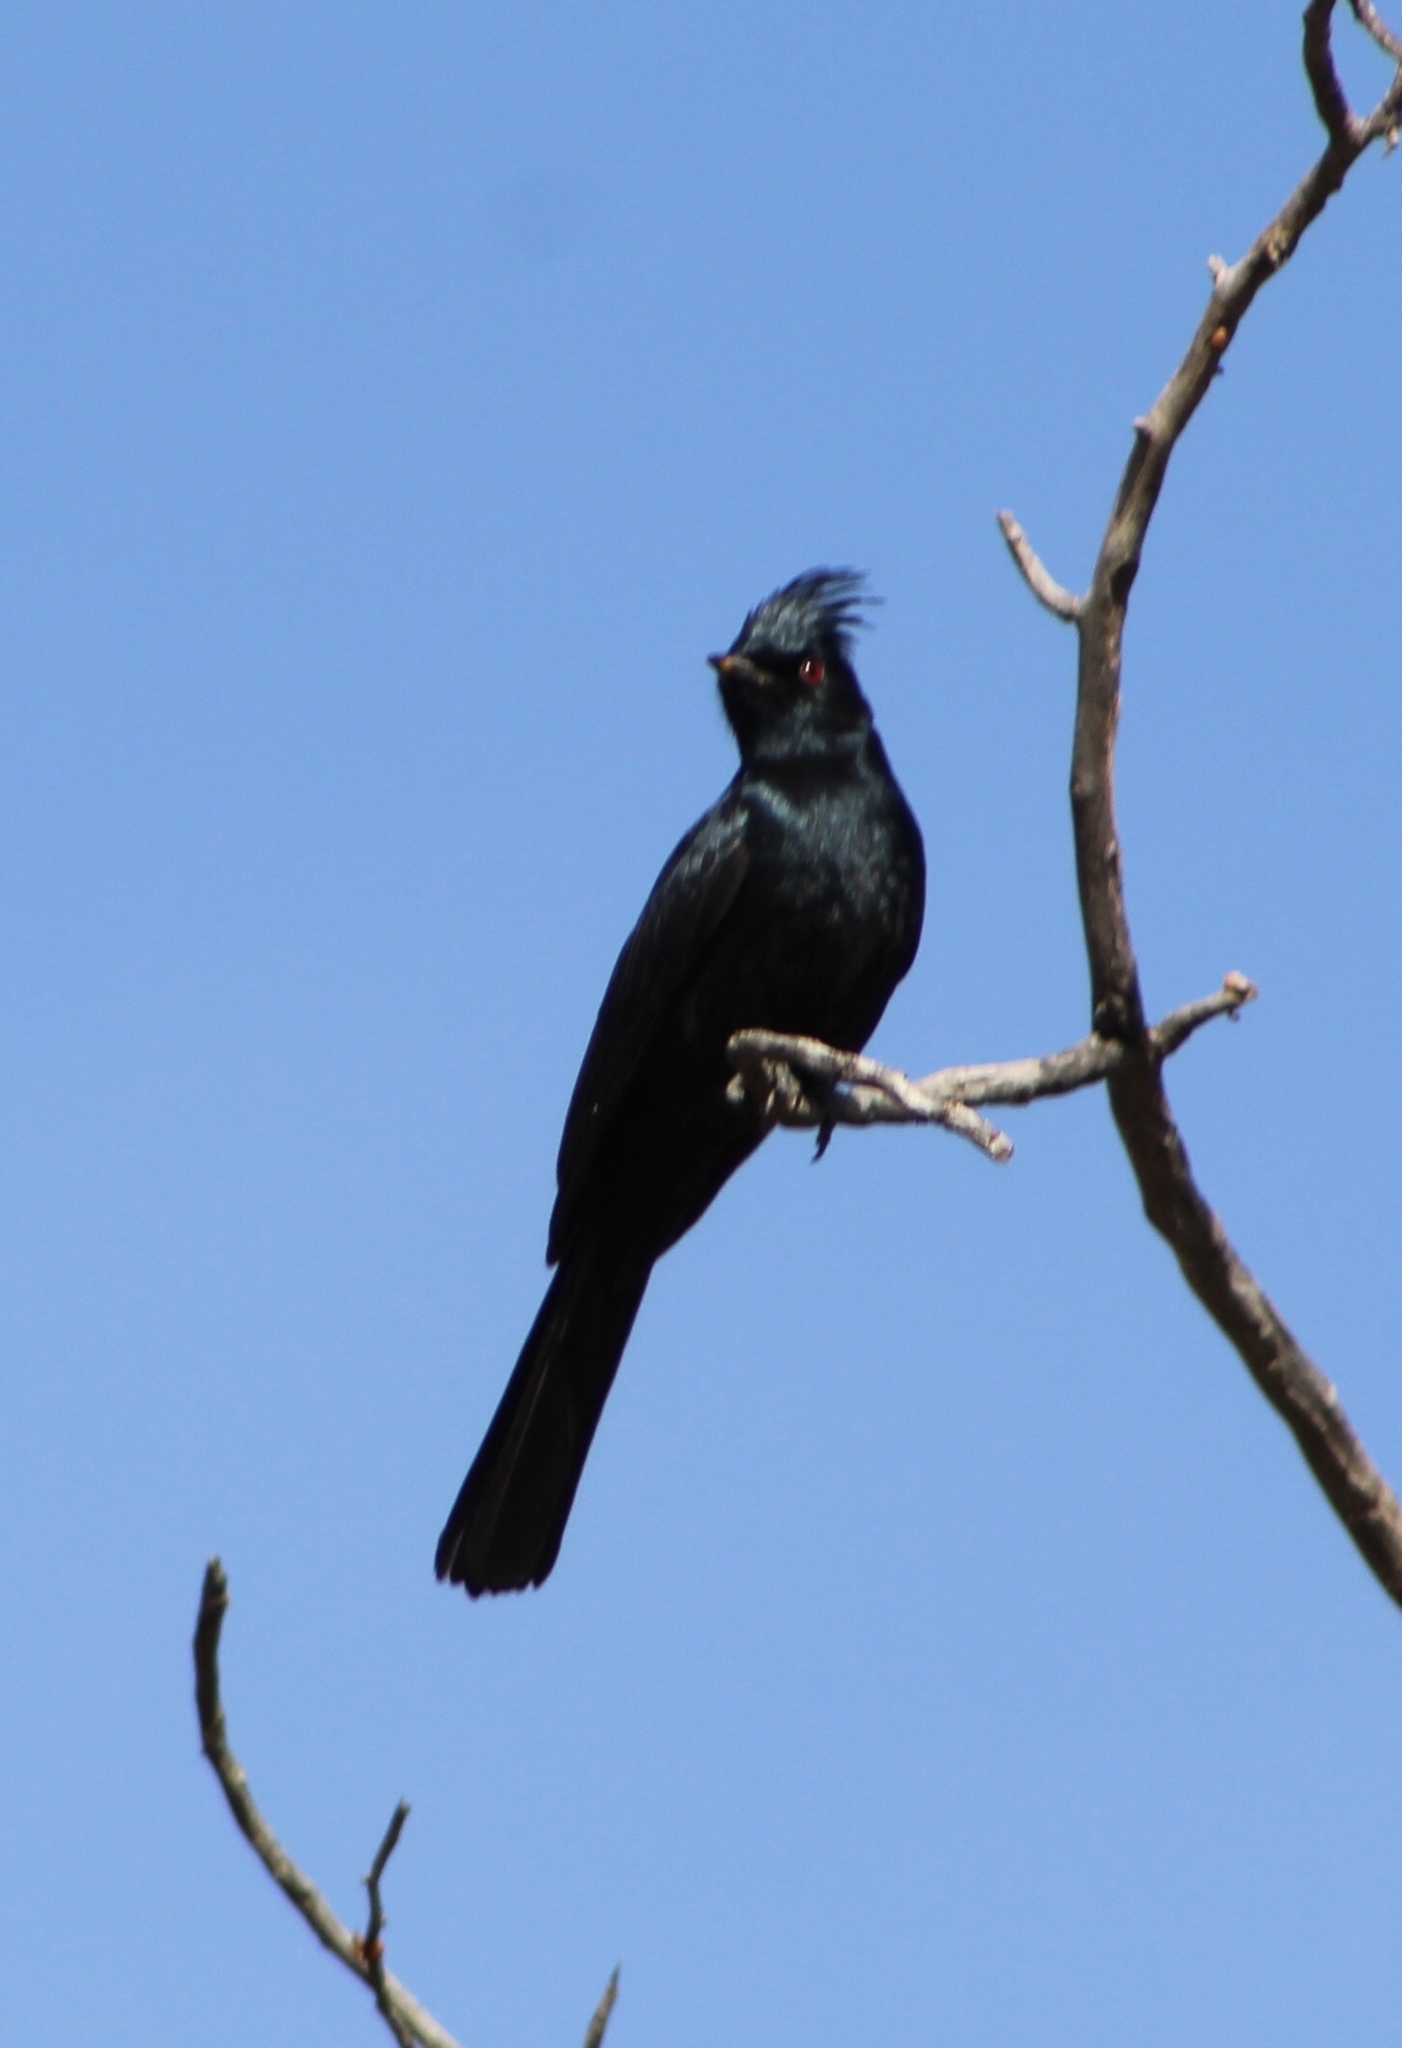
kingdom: Animalia
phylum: Chordata
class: Aves
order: Passeriformes
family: Ptilogonatidae
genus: Phainopepla
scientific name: Phainopepla nitens
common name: Phainopepla
